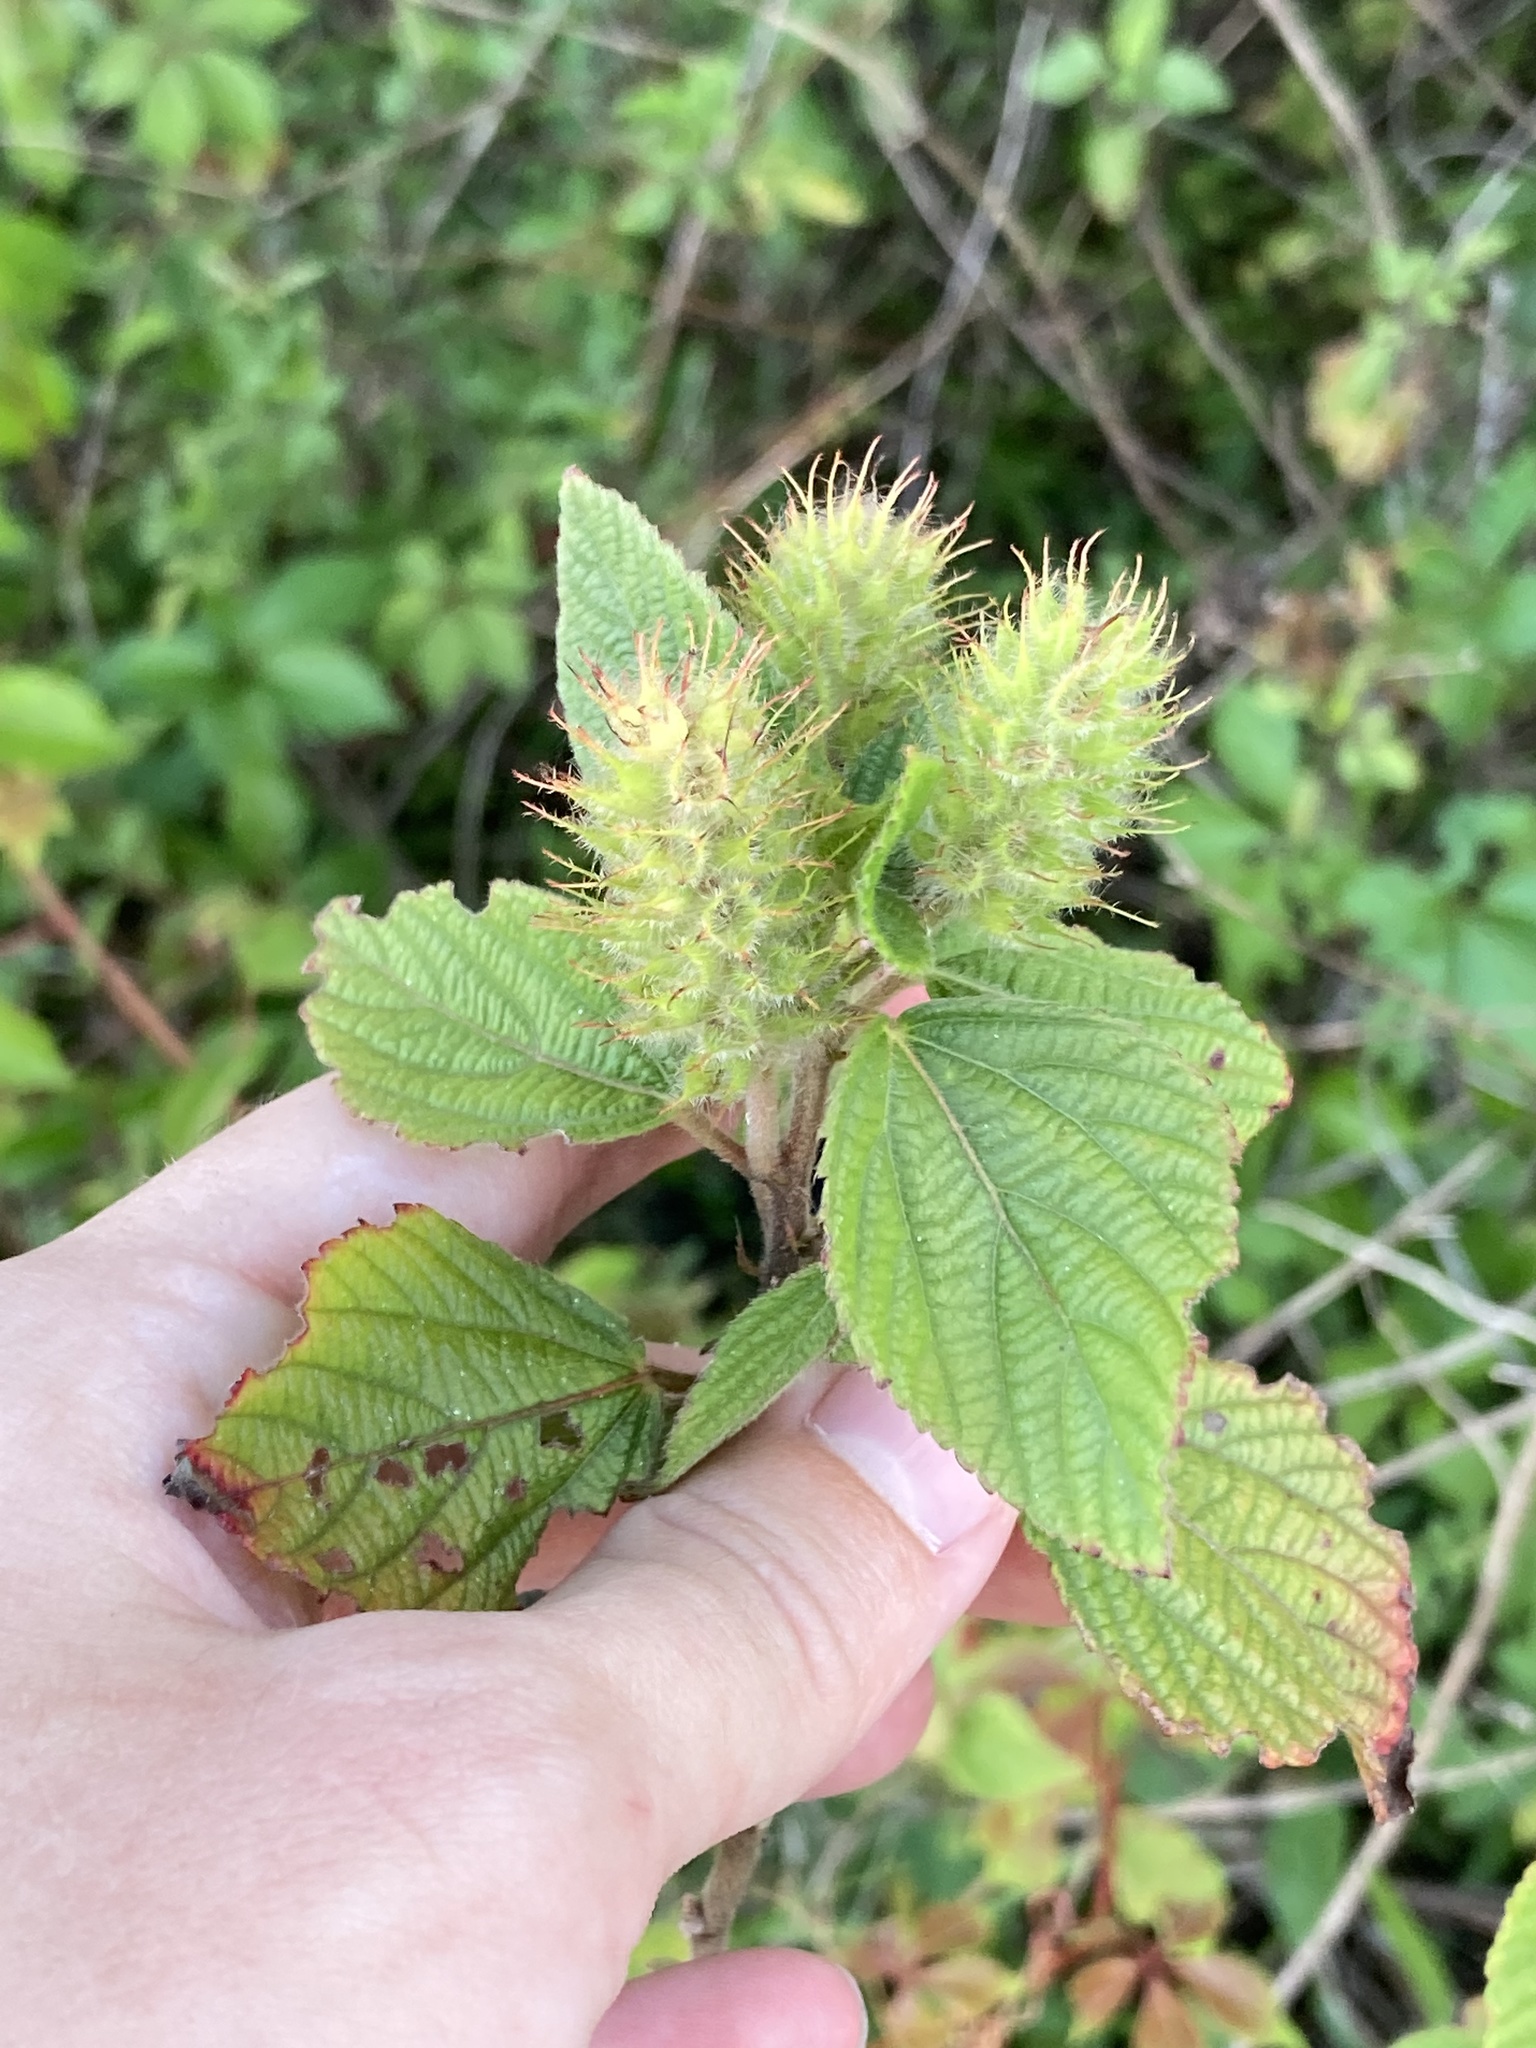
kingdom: Plantae
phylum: Tracheophyta
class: Magnoliopsida
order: Malpighiales
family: Euphorbiaceae
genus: Acalypha
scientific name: Acalypha arvensis
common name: Field copperleaf
